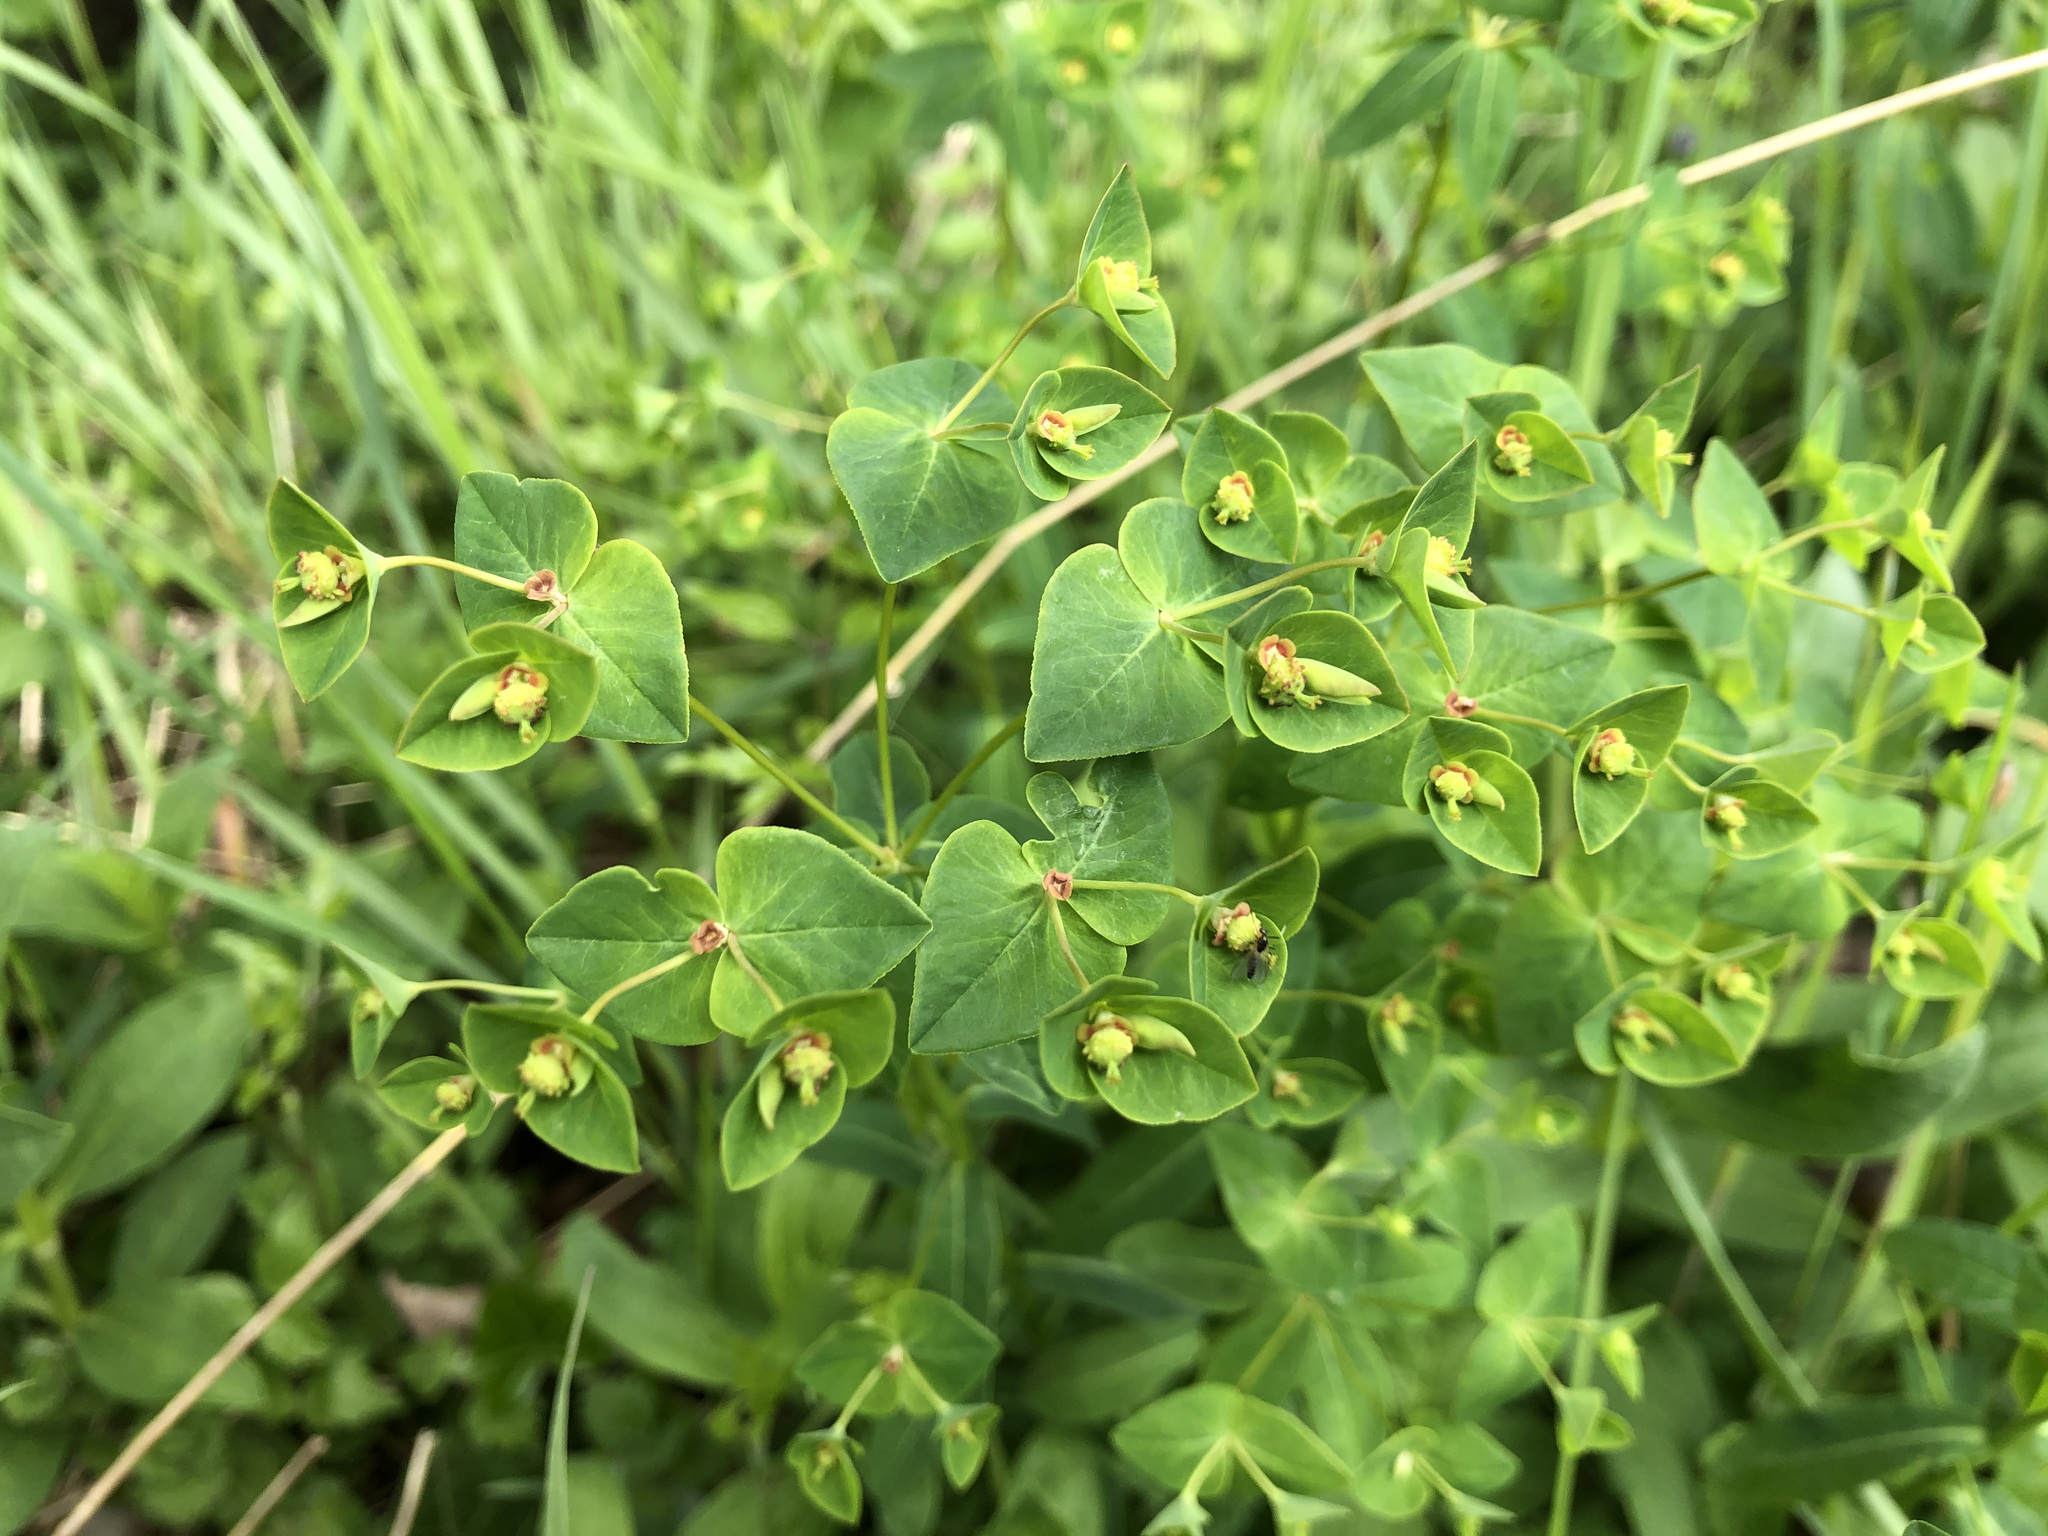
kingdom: Plantae
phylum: Tracheophyta
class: Magnoliopsida
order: Malpighiales
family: Euphorbiaceae
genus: Euphorbia
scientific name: Euphorbia dulcis
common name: Sweet spurge
